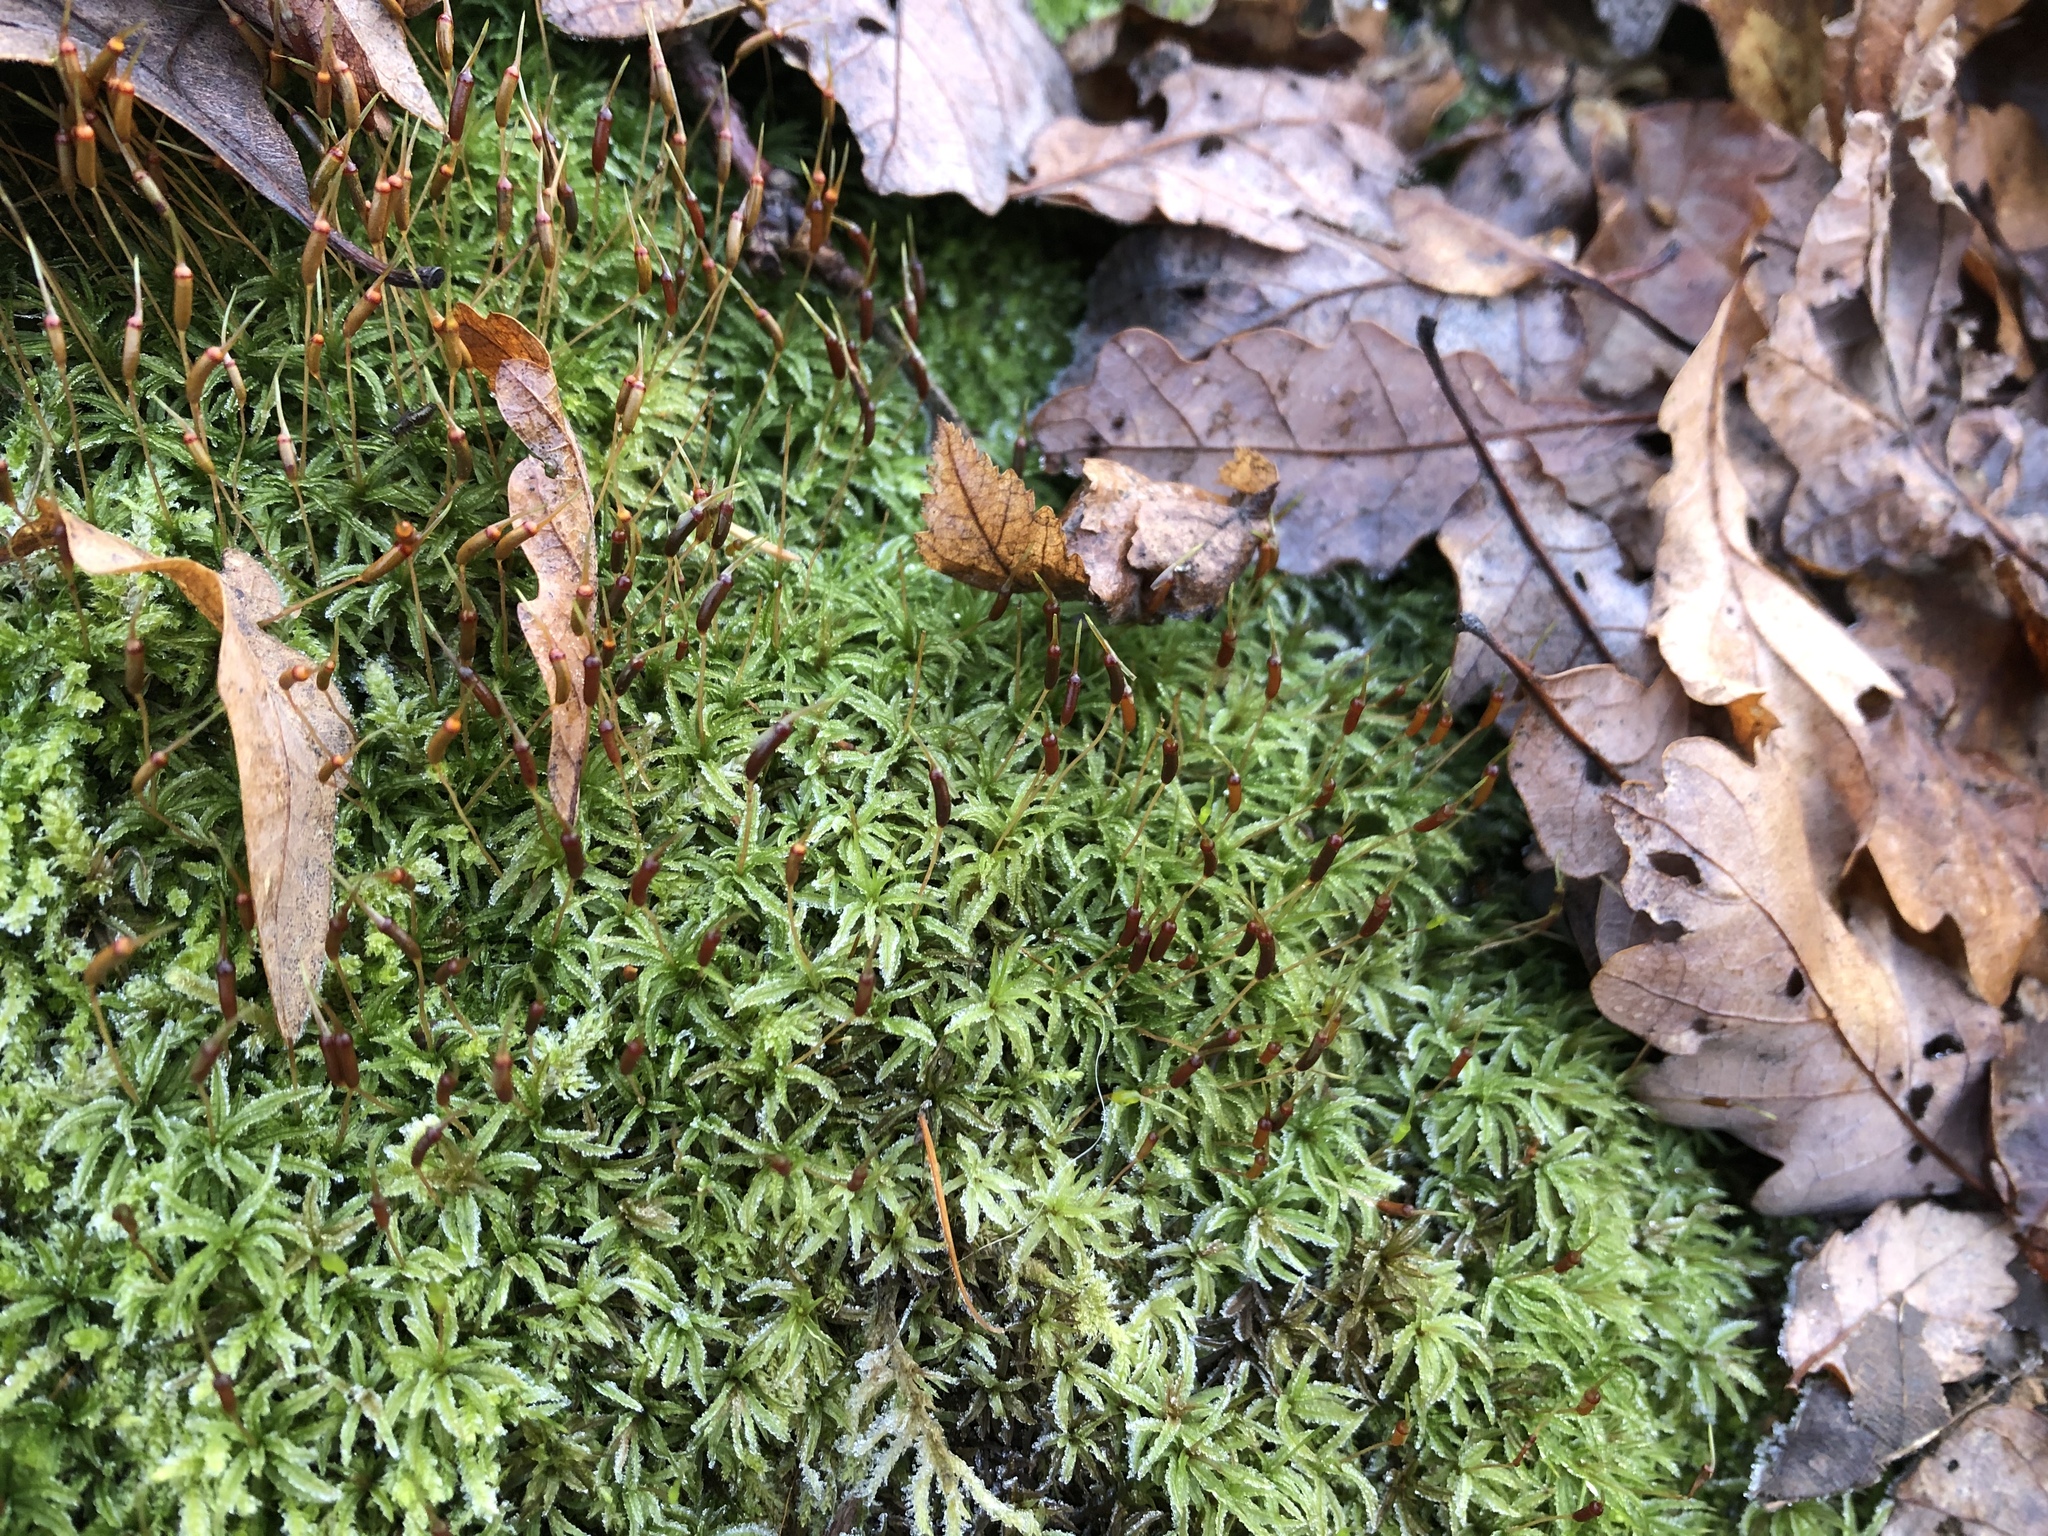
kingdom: Plantae
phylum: Bryophyta
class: Polytrichopsida
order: Polytrichales
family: Polytrichaceae
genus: Atrichum
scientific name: Atrichum undulatum
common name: Common smoothcap
